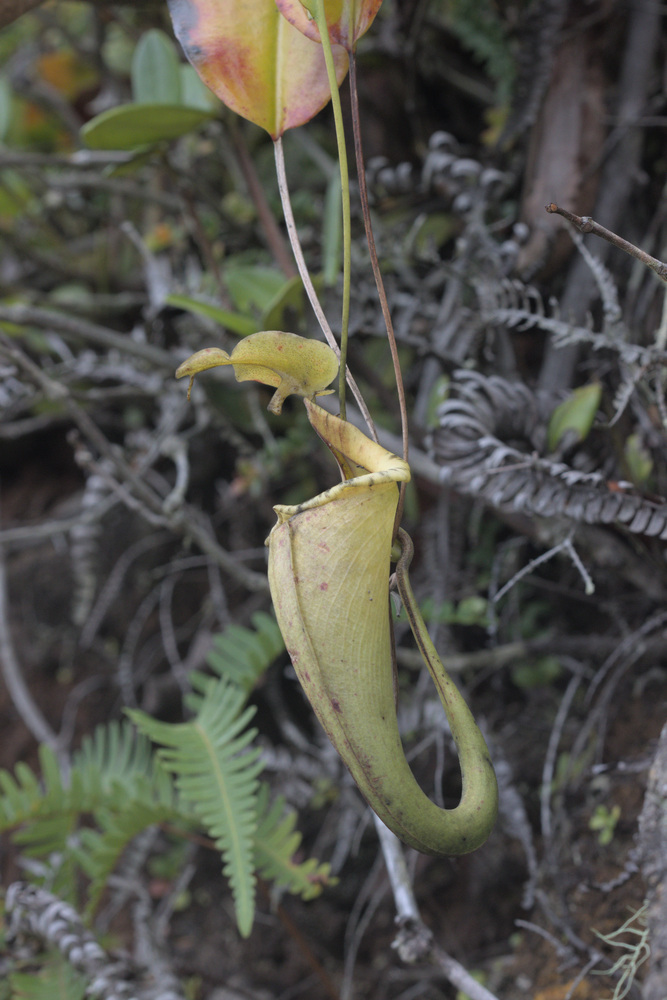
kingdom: Plantae
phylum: Tracheophyta
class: Magnoliopsida
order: Caryophyllales
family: Nepenthaceae
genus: Nepenthes
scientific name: Nepenthes maxima
